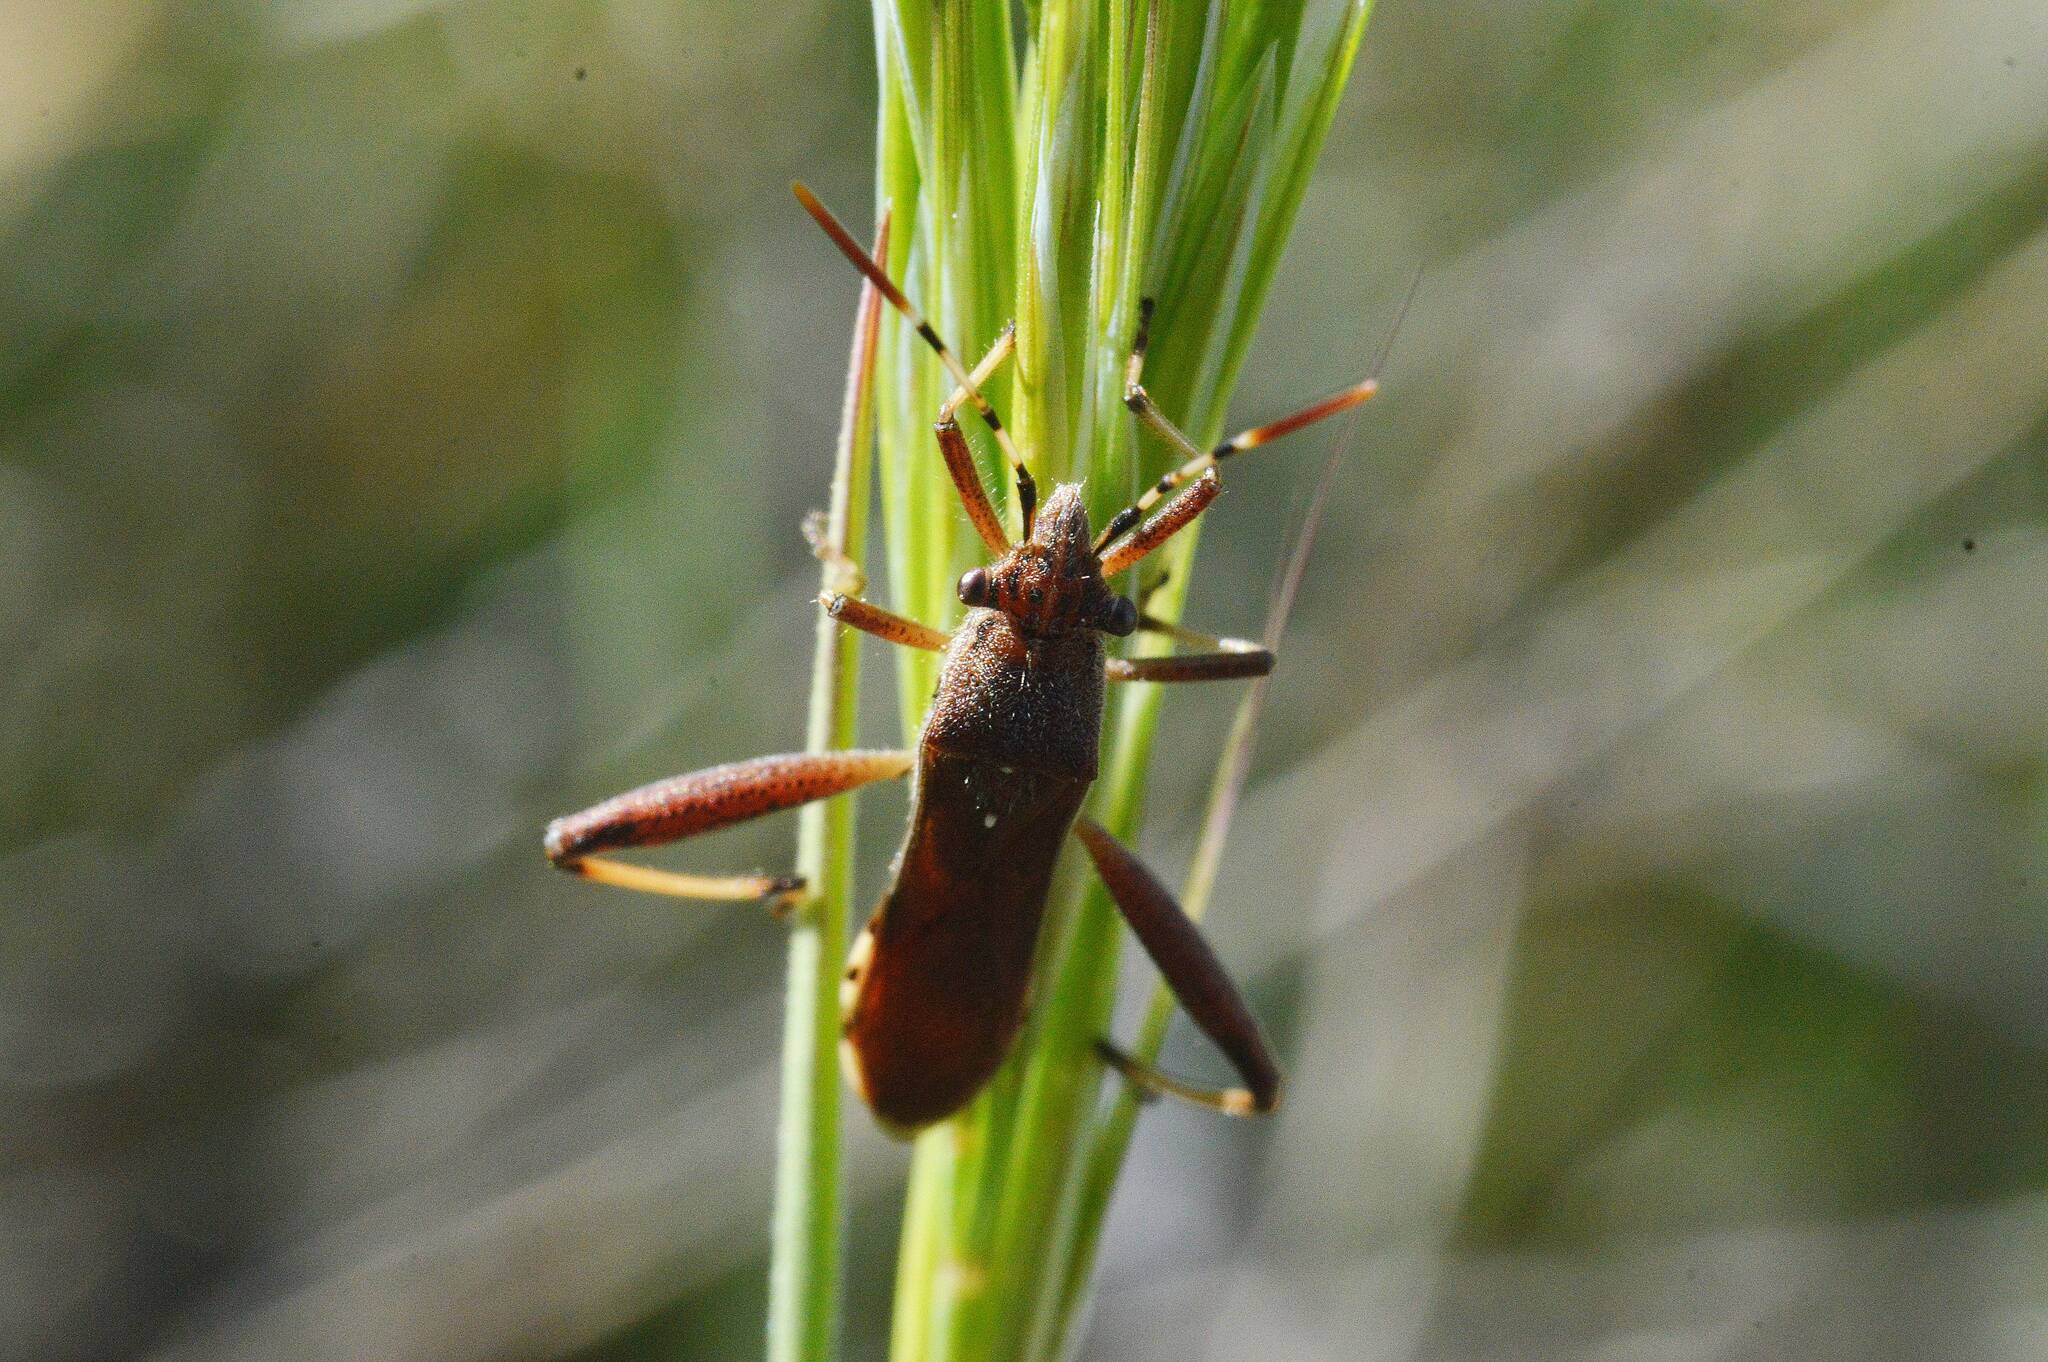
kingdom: Animalia
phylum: Arthropoda
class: Insecta
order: Hemiptera
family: Alydidae
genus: Camptopus
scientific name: Camptopus lateralis
